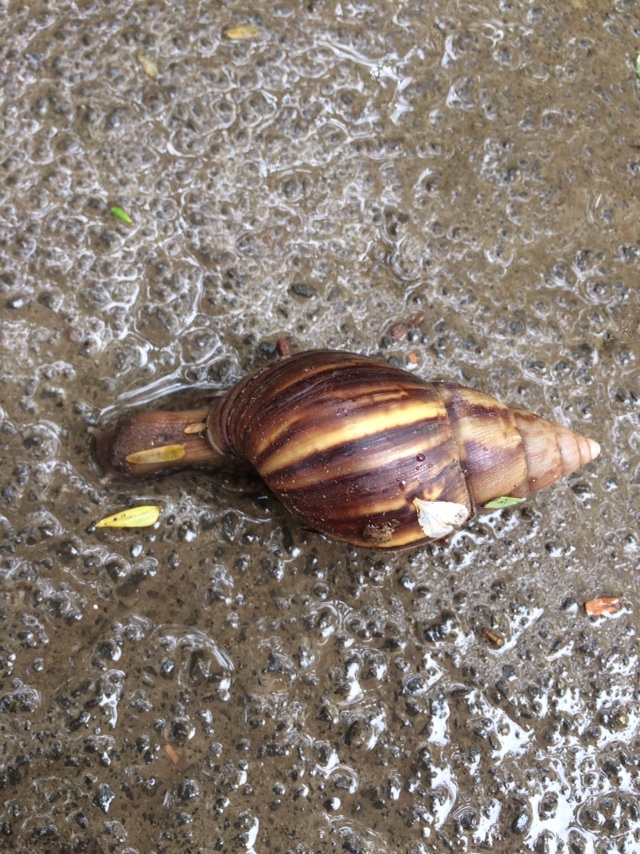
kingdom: Animalia
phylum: Mollusca
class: Gastropoda
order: Stylommatophora
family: Achatinidae
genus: Lissachatina
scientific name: Lissachatina fulica
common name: Giant african snail
